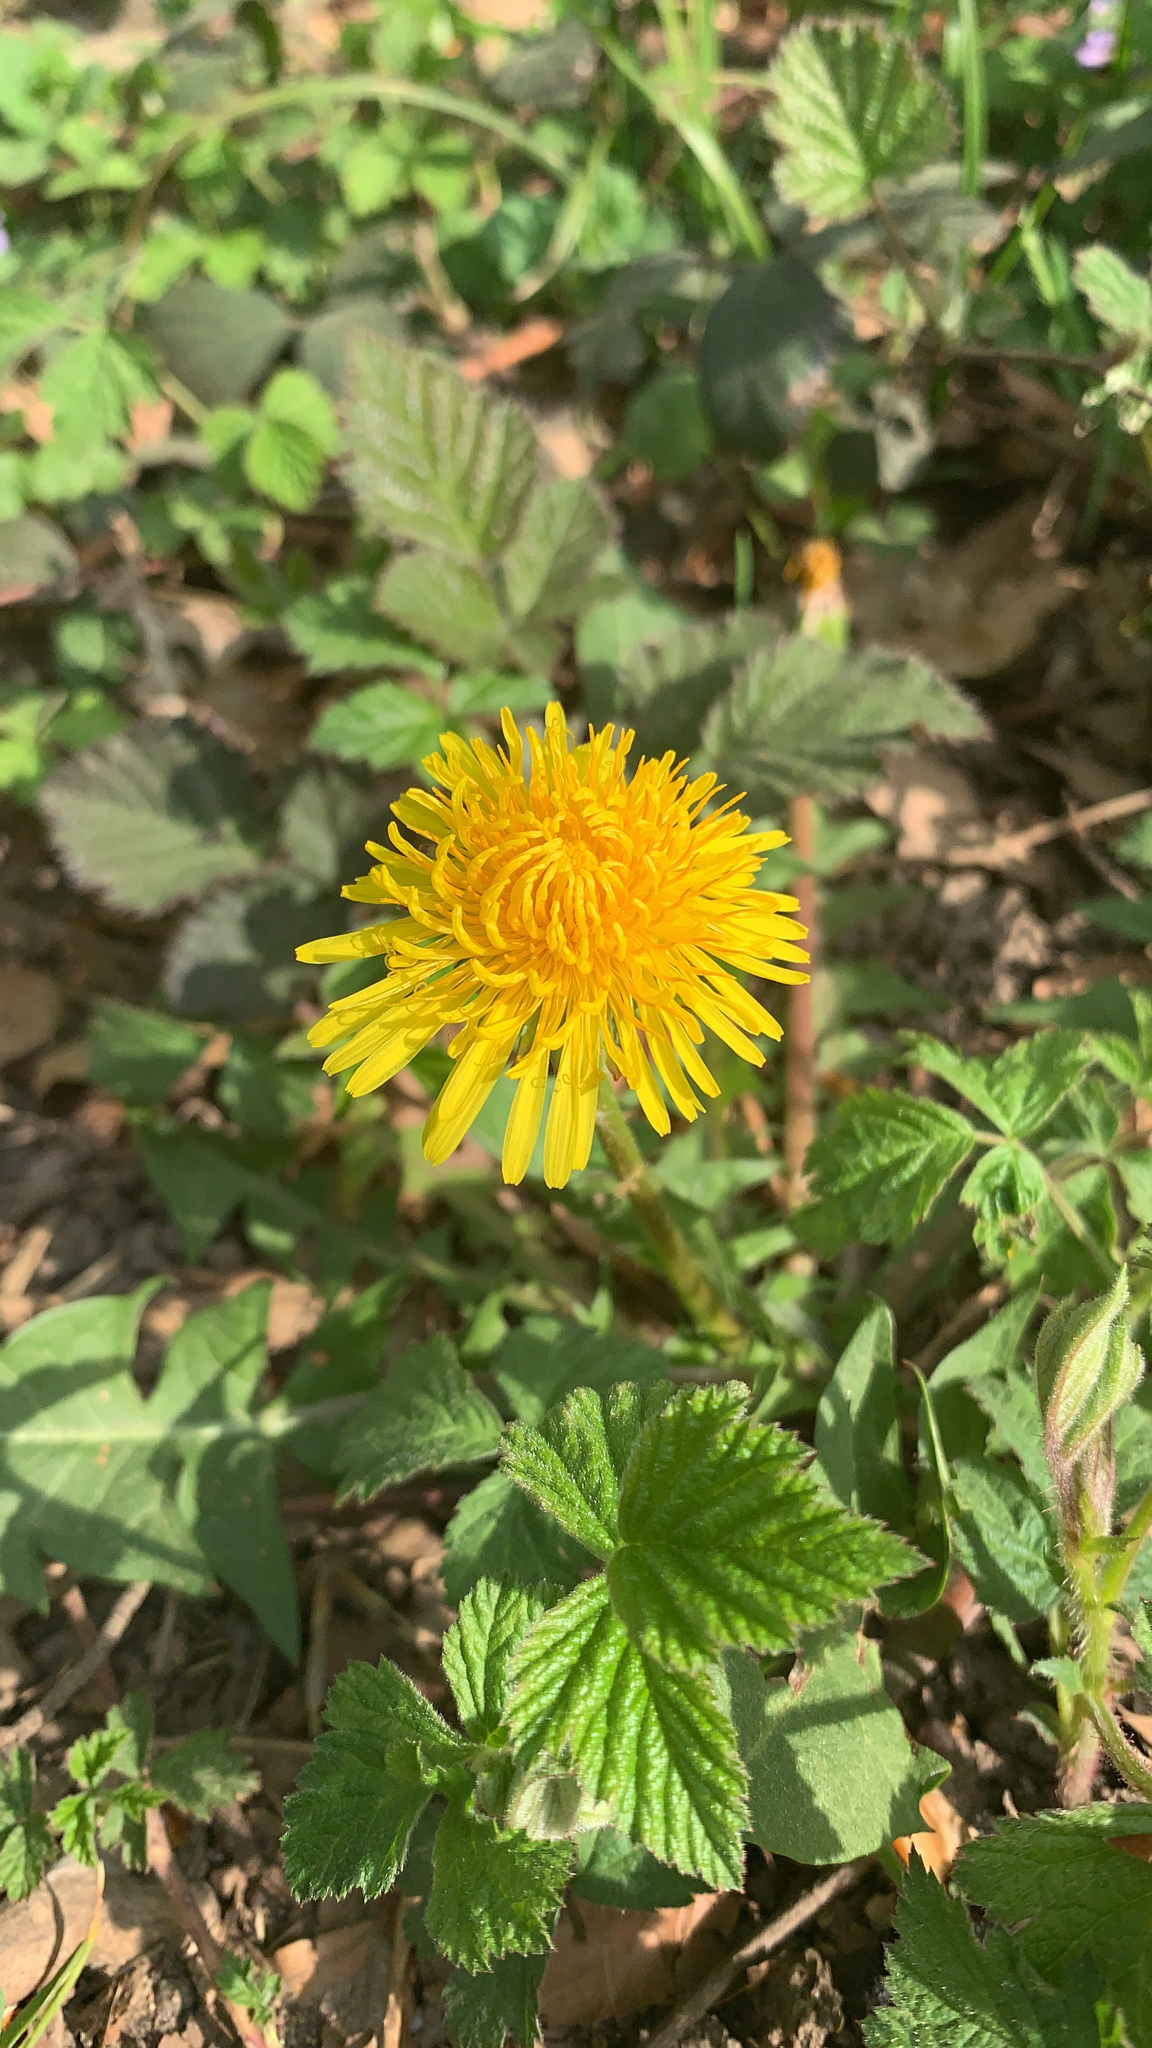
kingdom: Plantae
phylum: Tracheophyta
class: Magnoliopsida
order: Asterales
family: Asteraceae
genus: Taraxacum
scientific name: Taraxacum officinale
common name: Common dandelion
